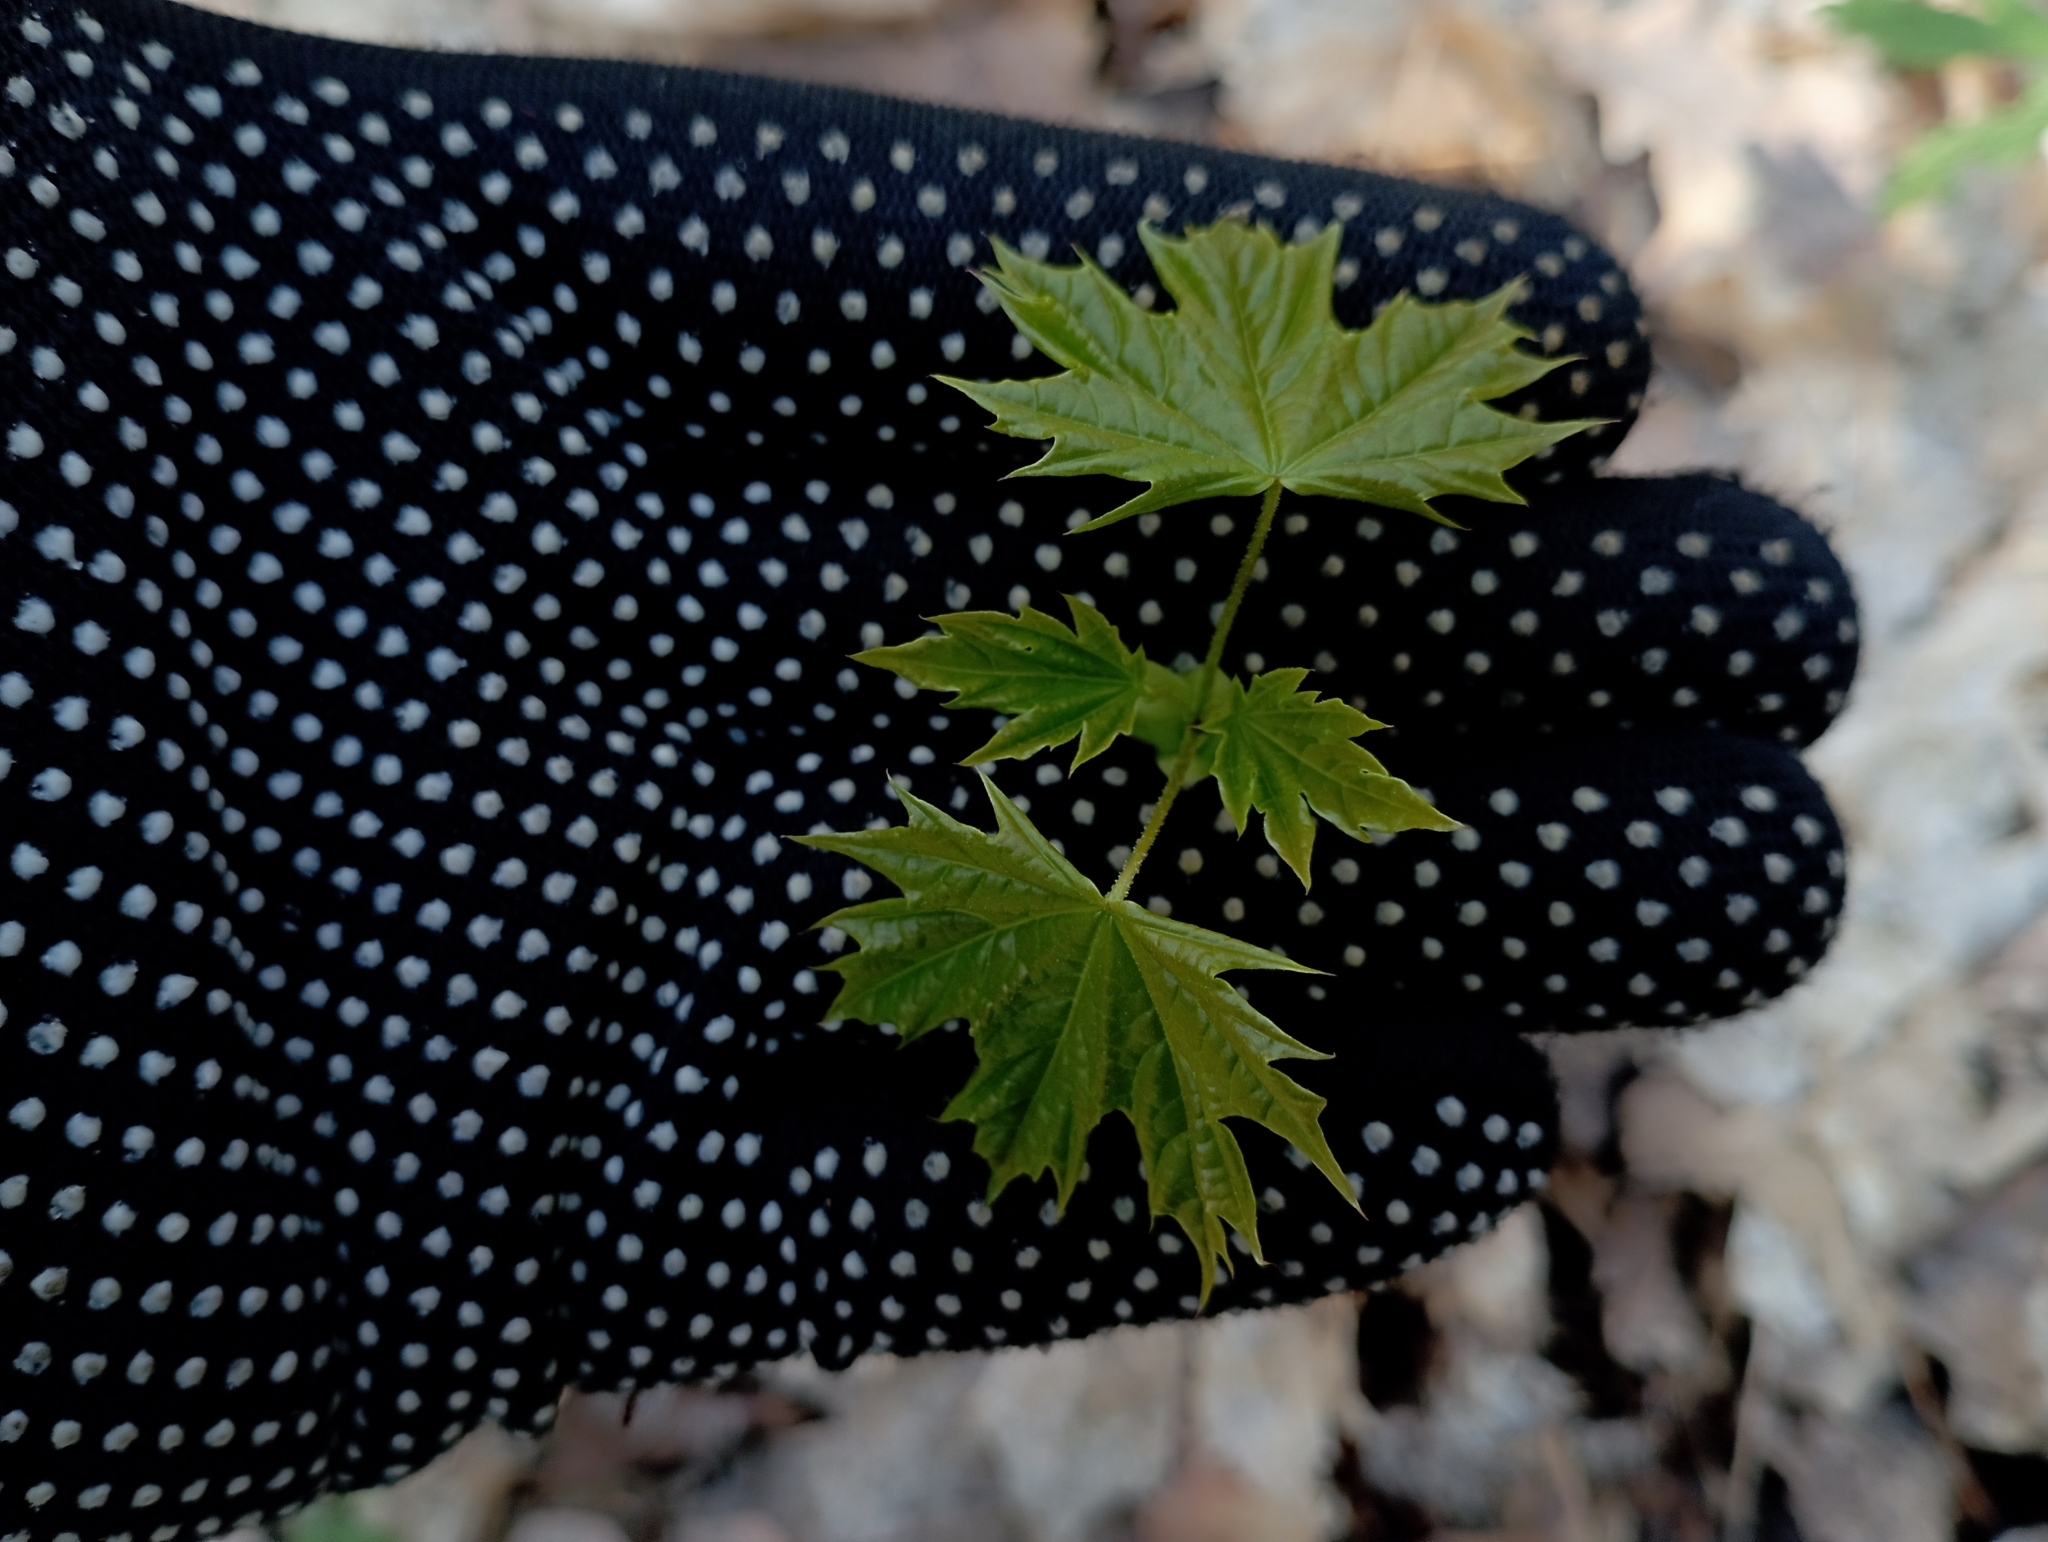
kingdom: Plantae
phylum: Tracheophyta
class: Magnoliopsida
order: Sapindales
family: Sapindaceae
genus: Acer
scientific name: Acer platanoides
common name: Norway maple
